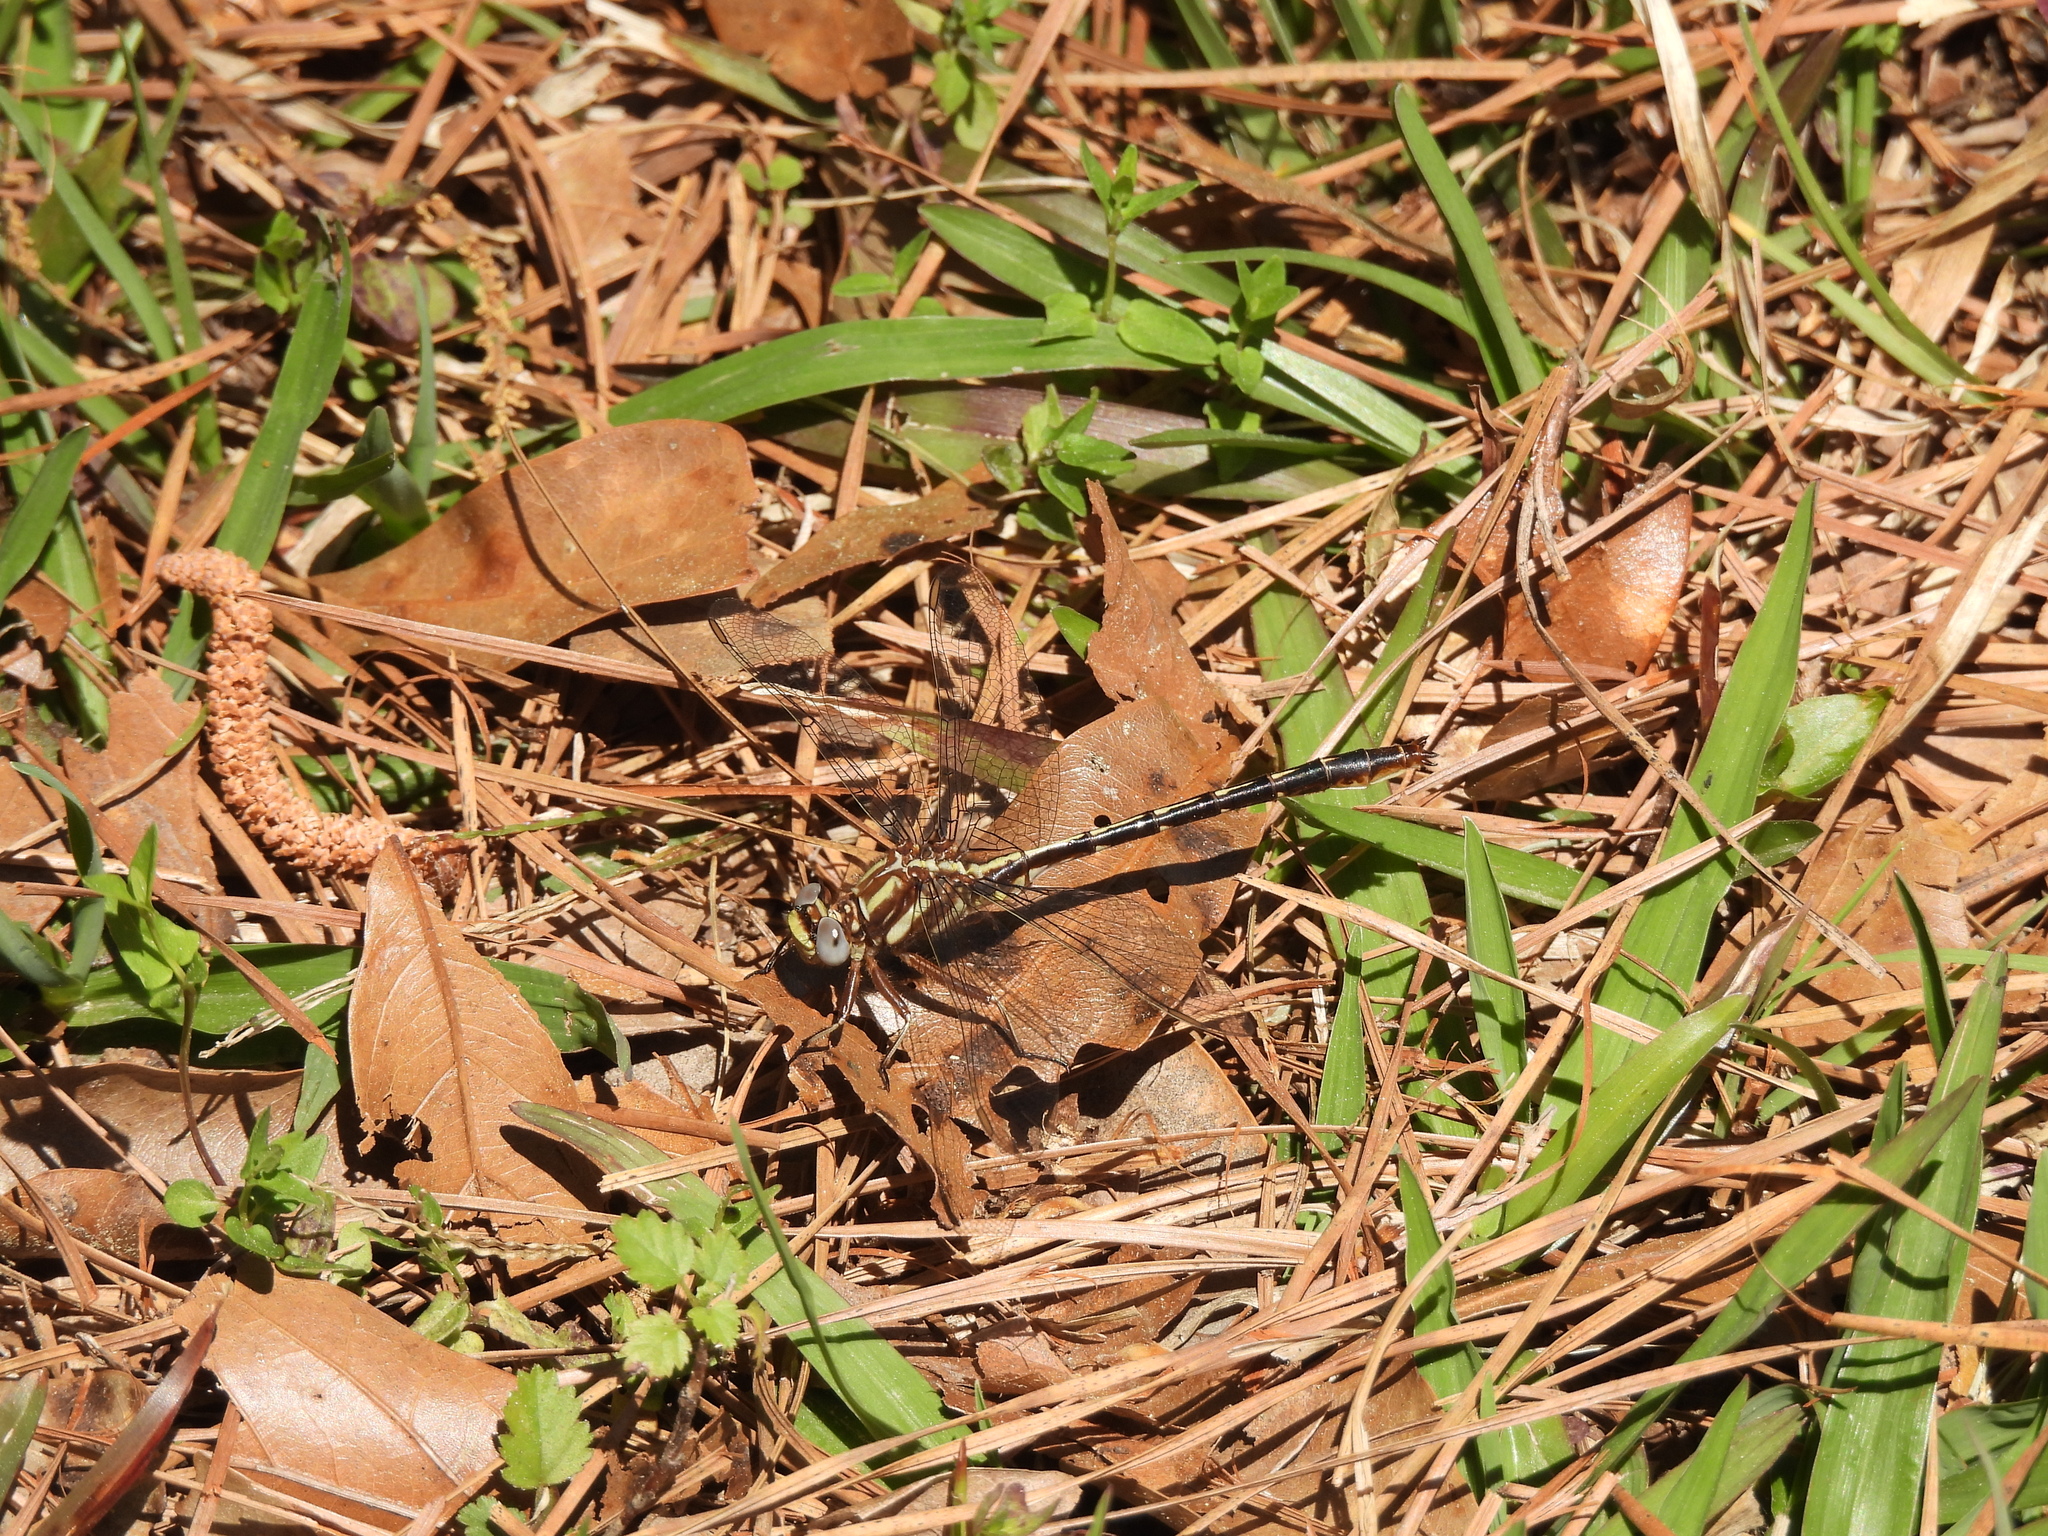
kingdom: Animalia
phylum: Arthropoda
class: Insecta
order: Odonata
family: Gomphidae
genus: Phanogomphus
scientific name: Phanogomphus lividus
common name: Ashy clubtail
